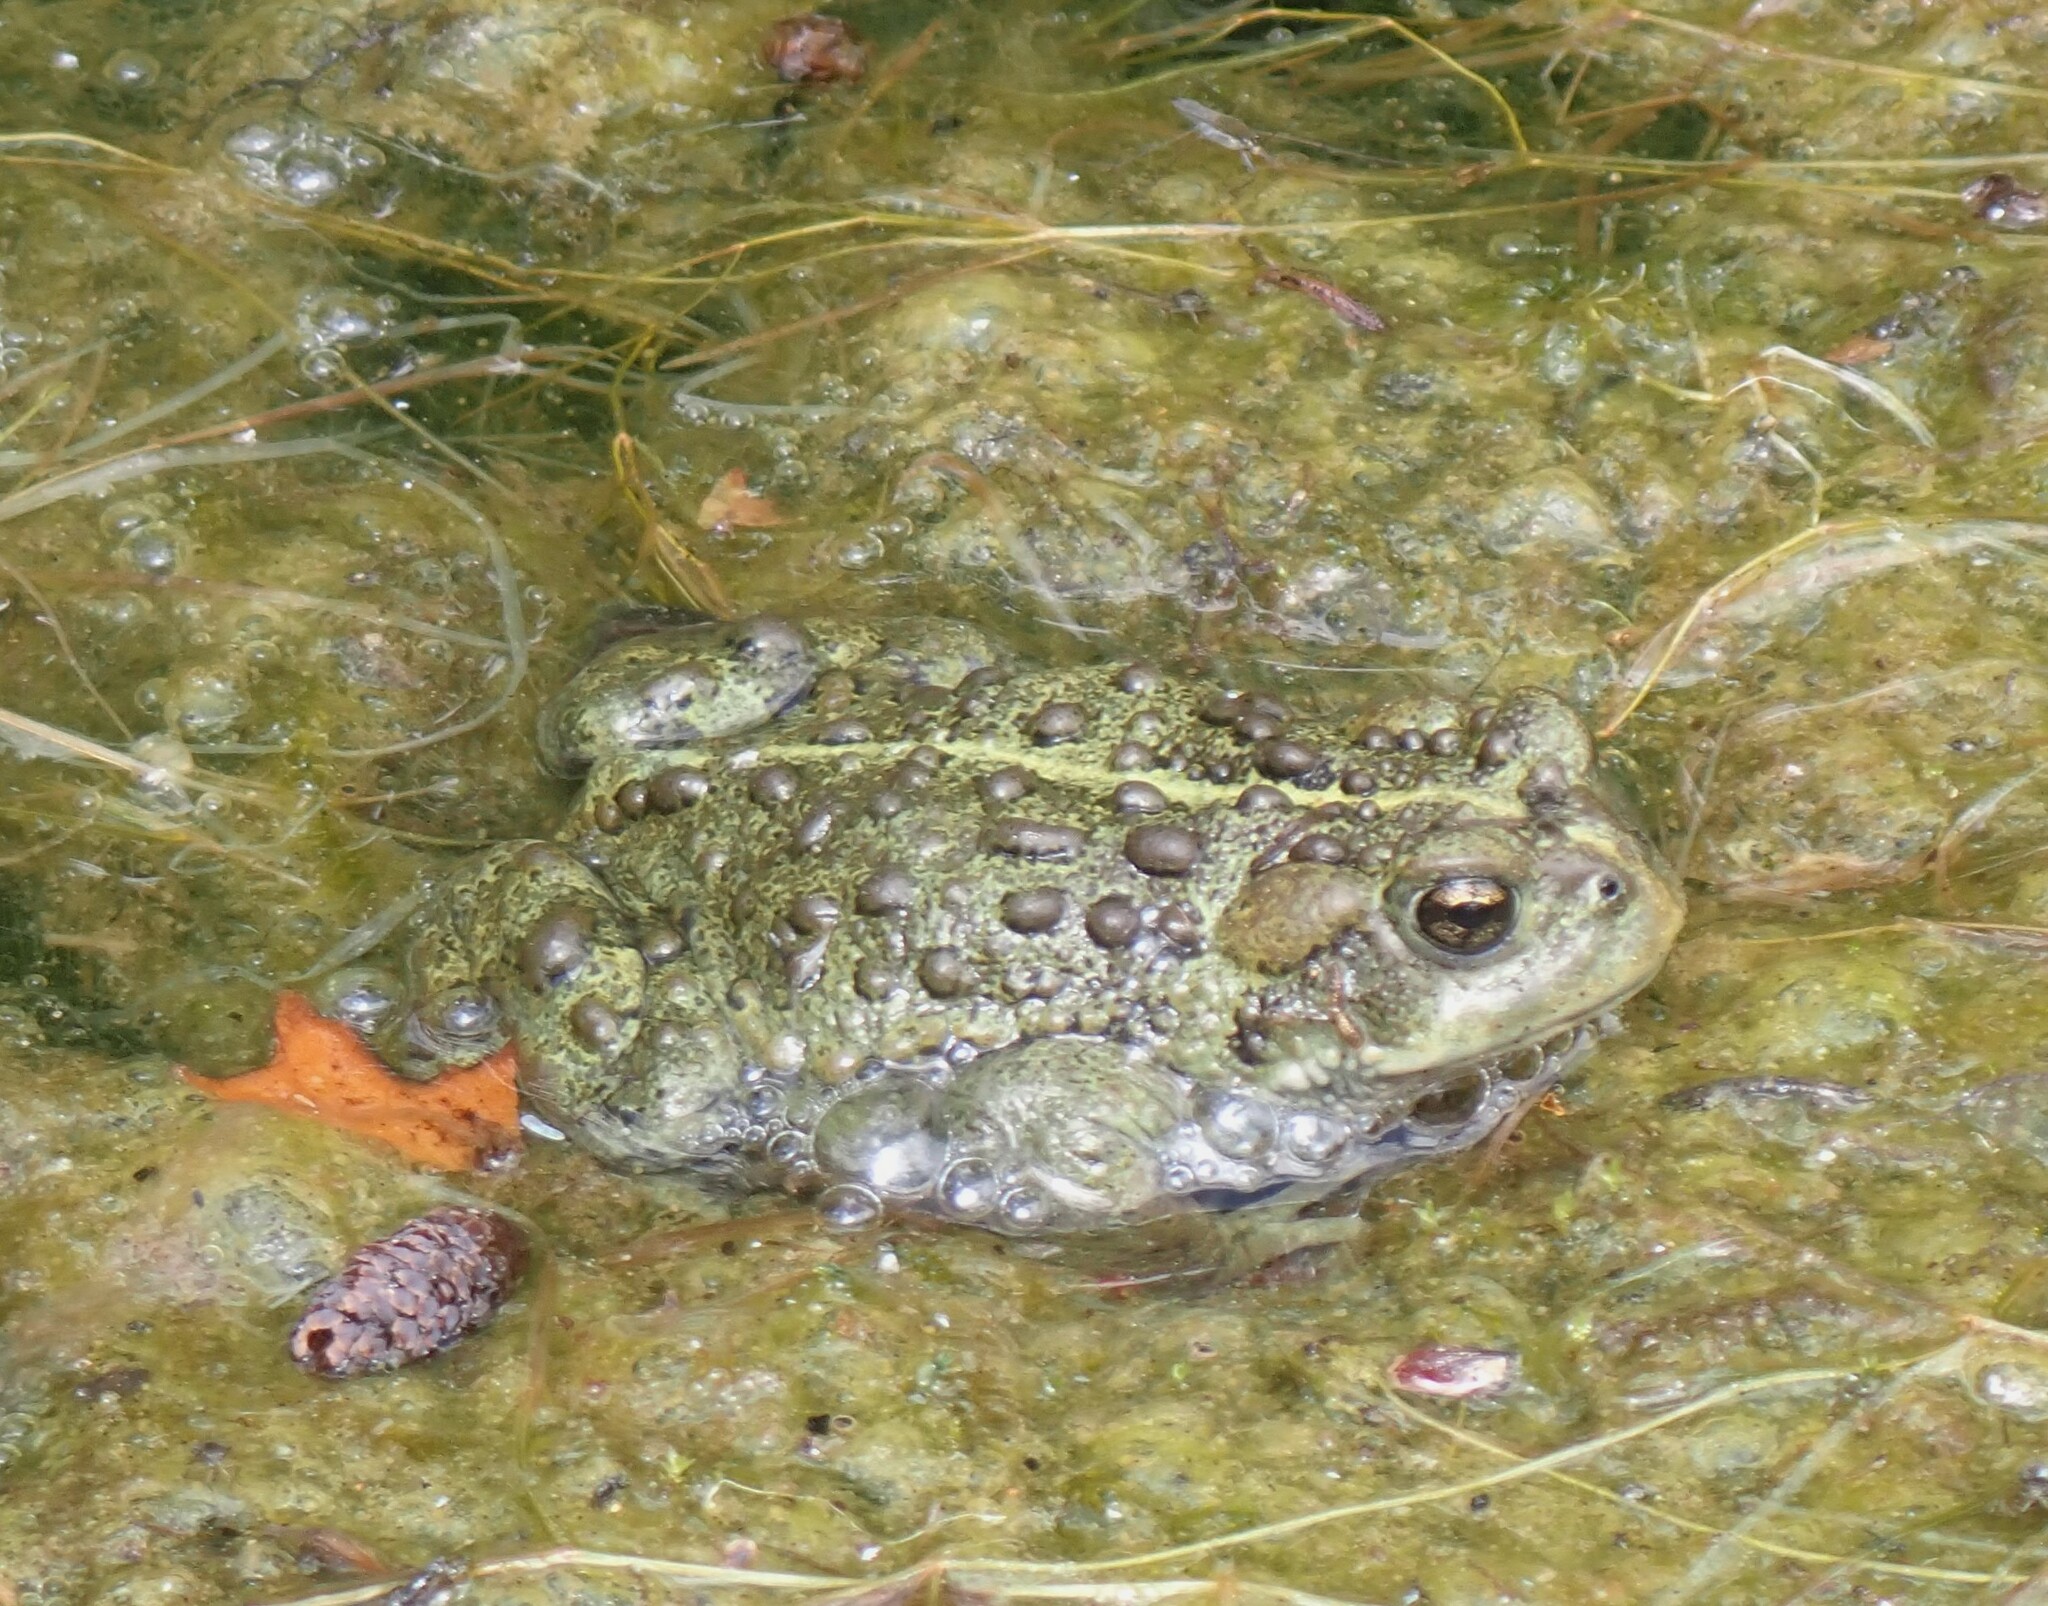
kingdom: Animalia
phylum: Chordata
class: Amphibia
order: Anura
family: Bufonidae
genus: Anaxyrus
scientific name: Anaxyrus boreas
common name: Western toad
